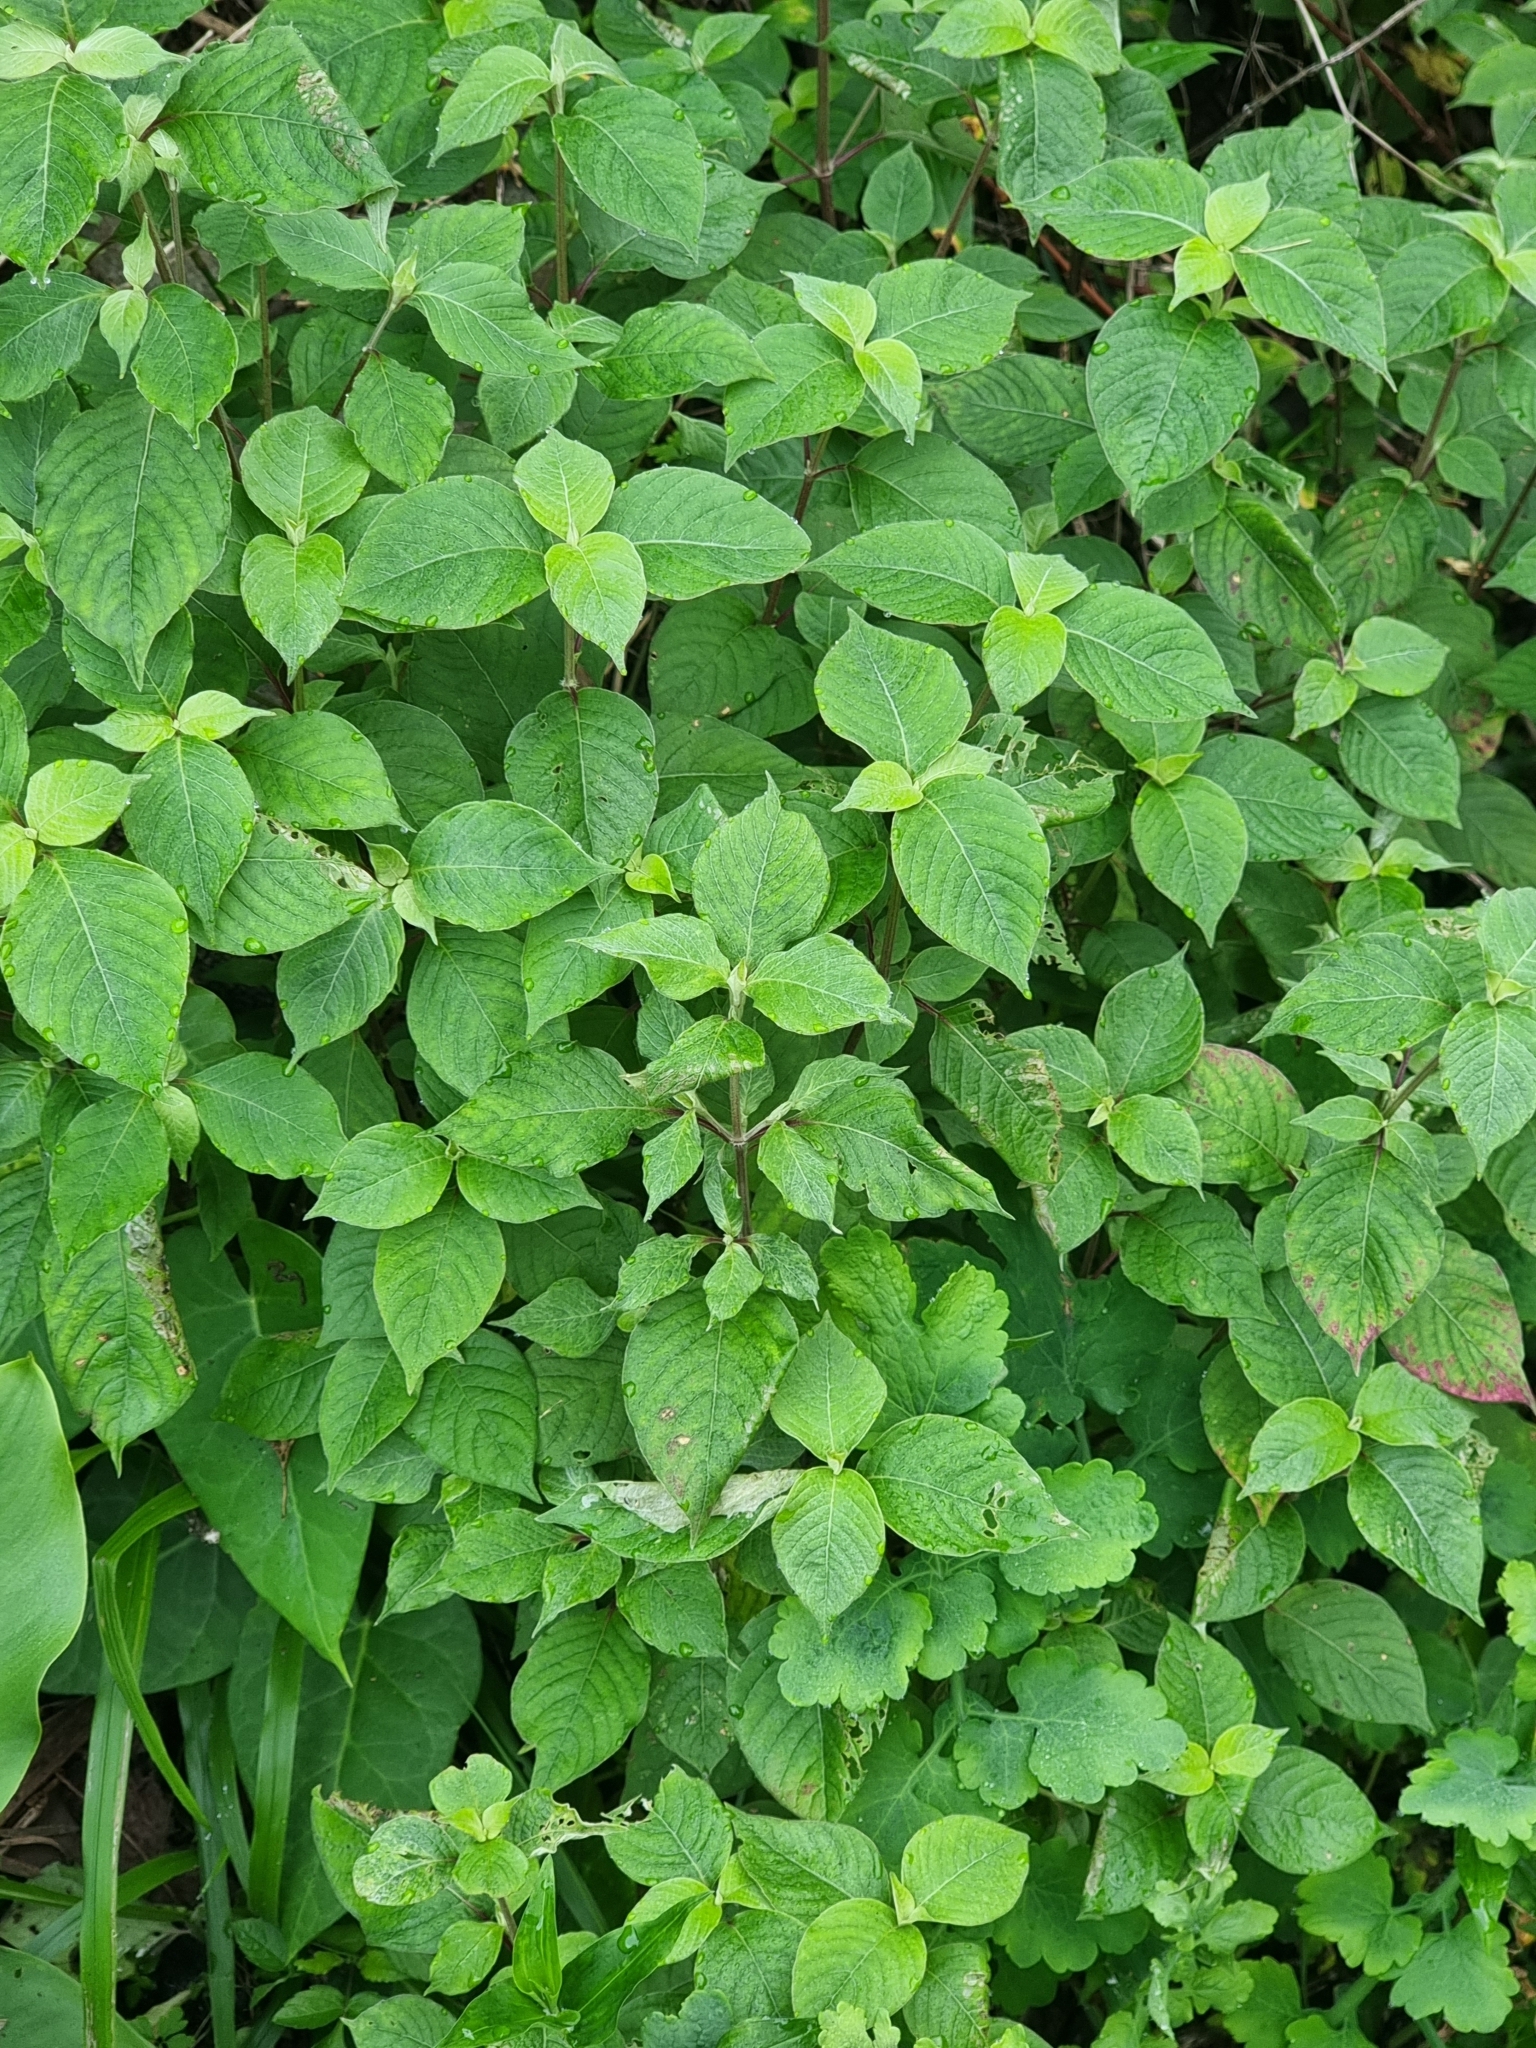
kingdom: Plantae
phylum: Tracheophyta
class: Magnoliopsida
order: Caryophyllales
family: Amaranthaceae
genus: Achyranthes
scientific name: Achyranthes aspera
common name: Devil's horsewhip
